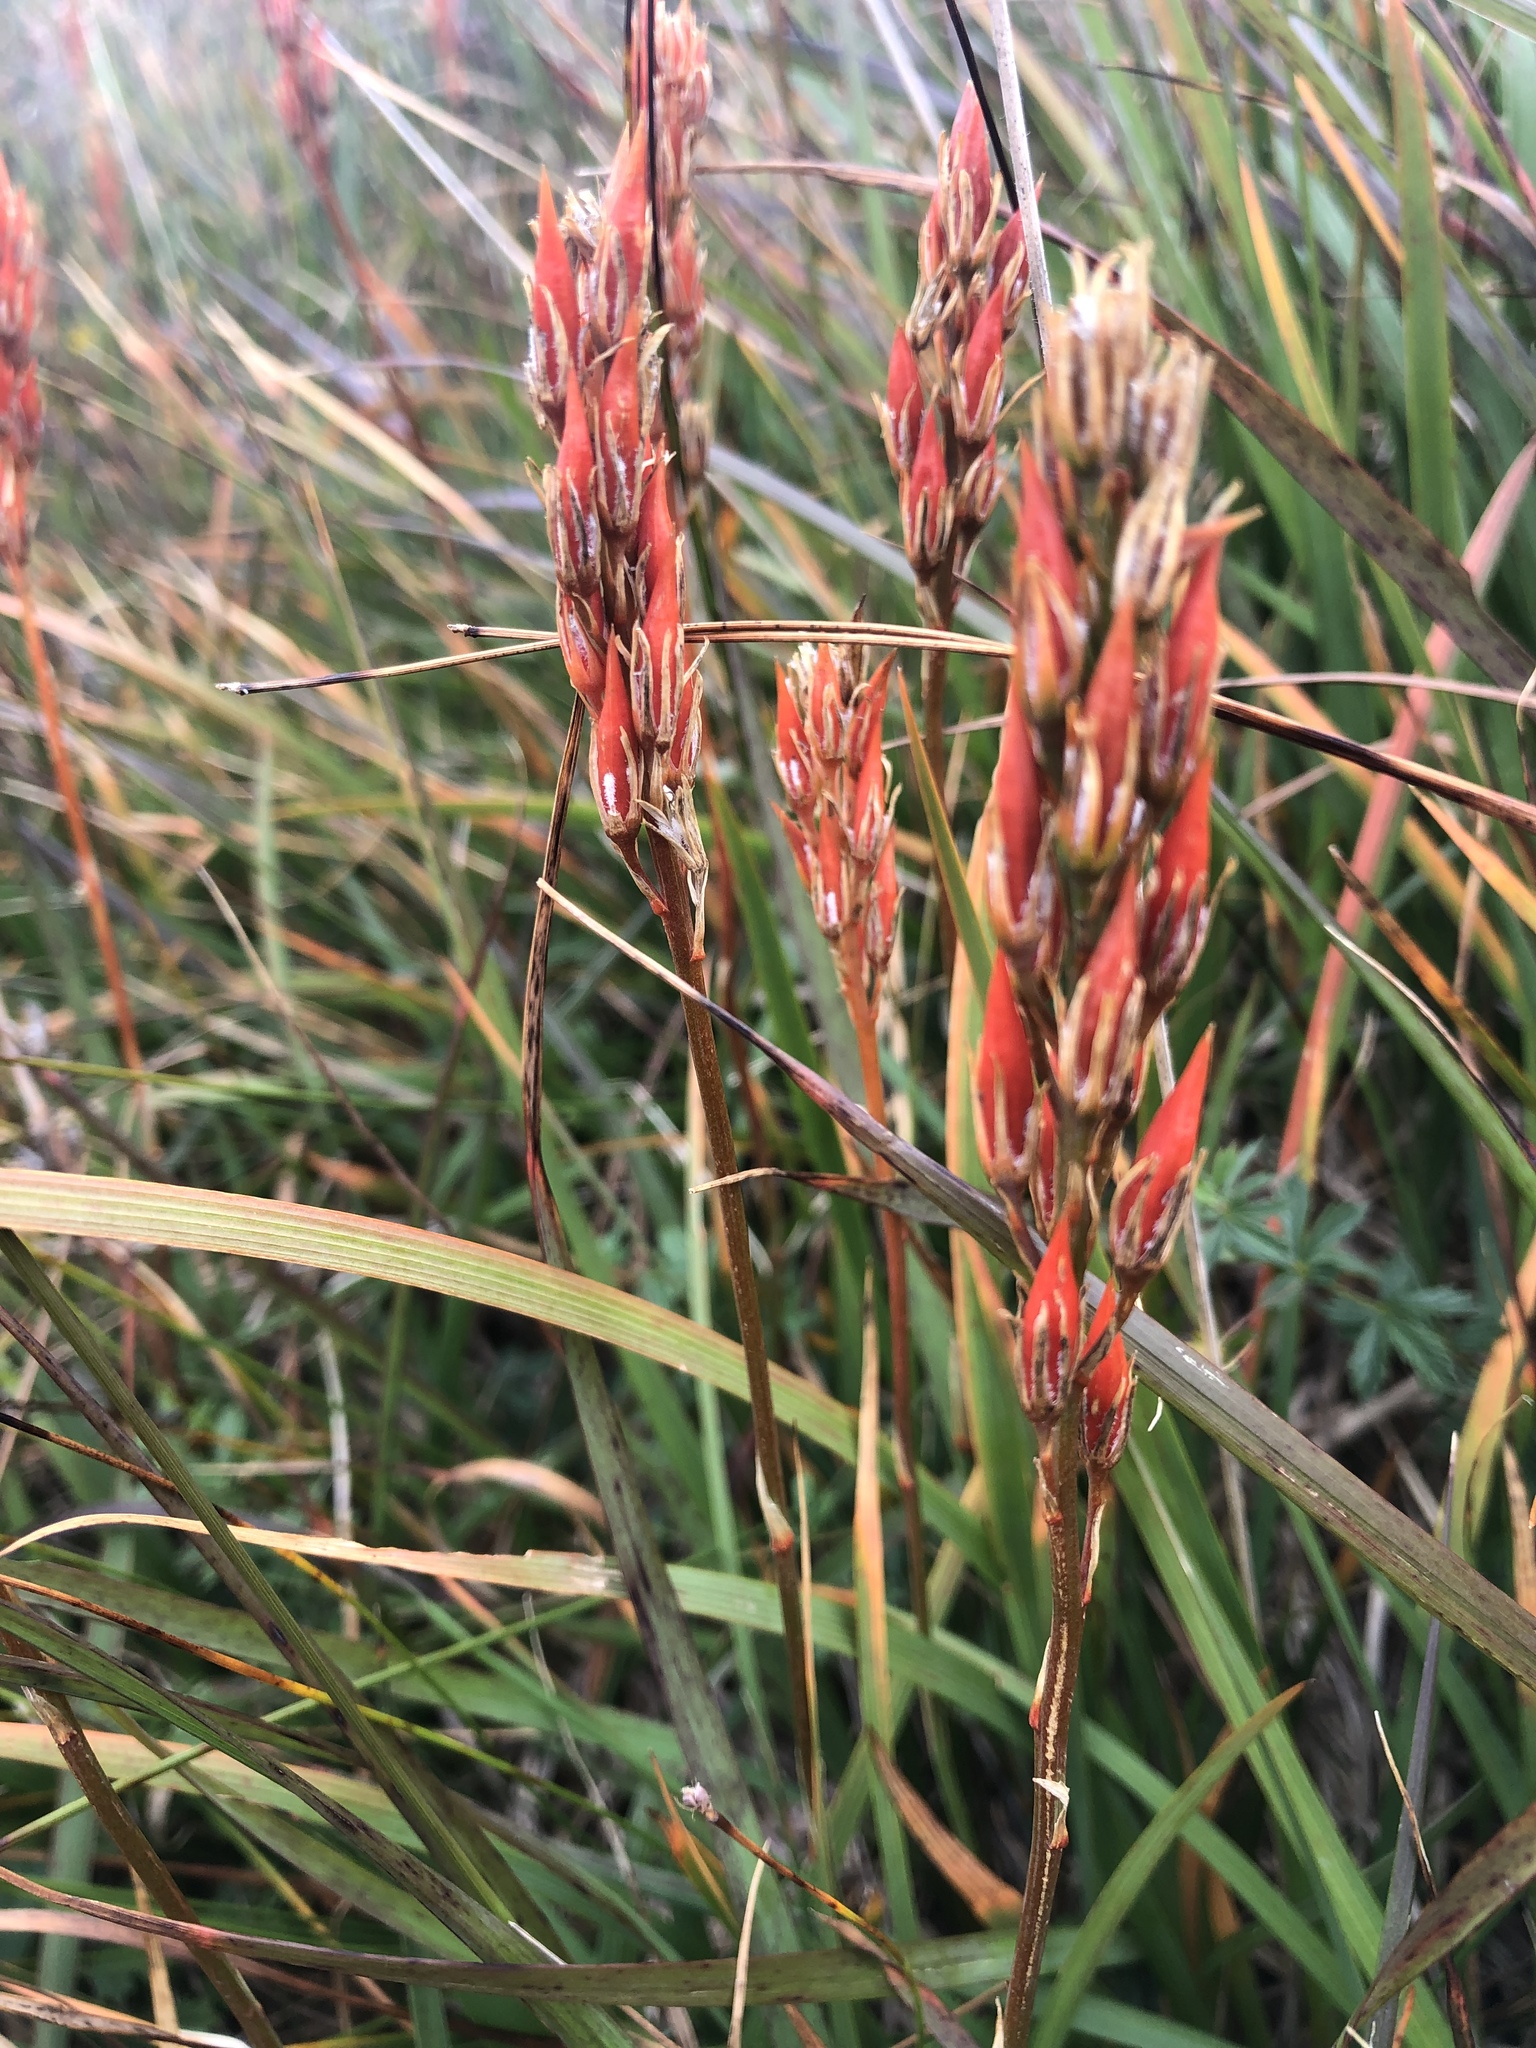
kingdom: Plantae
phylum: Tracheophyta
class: Liliopsida
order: Dioscoreales
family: Nartheciaceae
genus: Narthecium
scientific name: Narthecium ossifragum
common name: Bog asphodel
